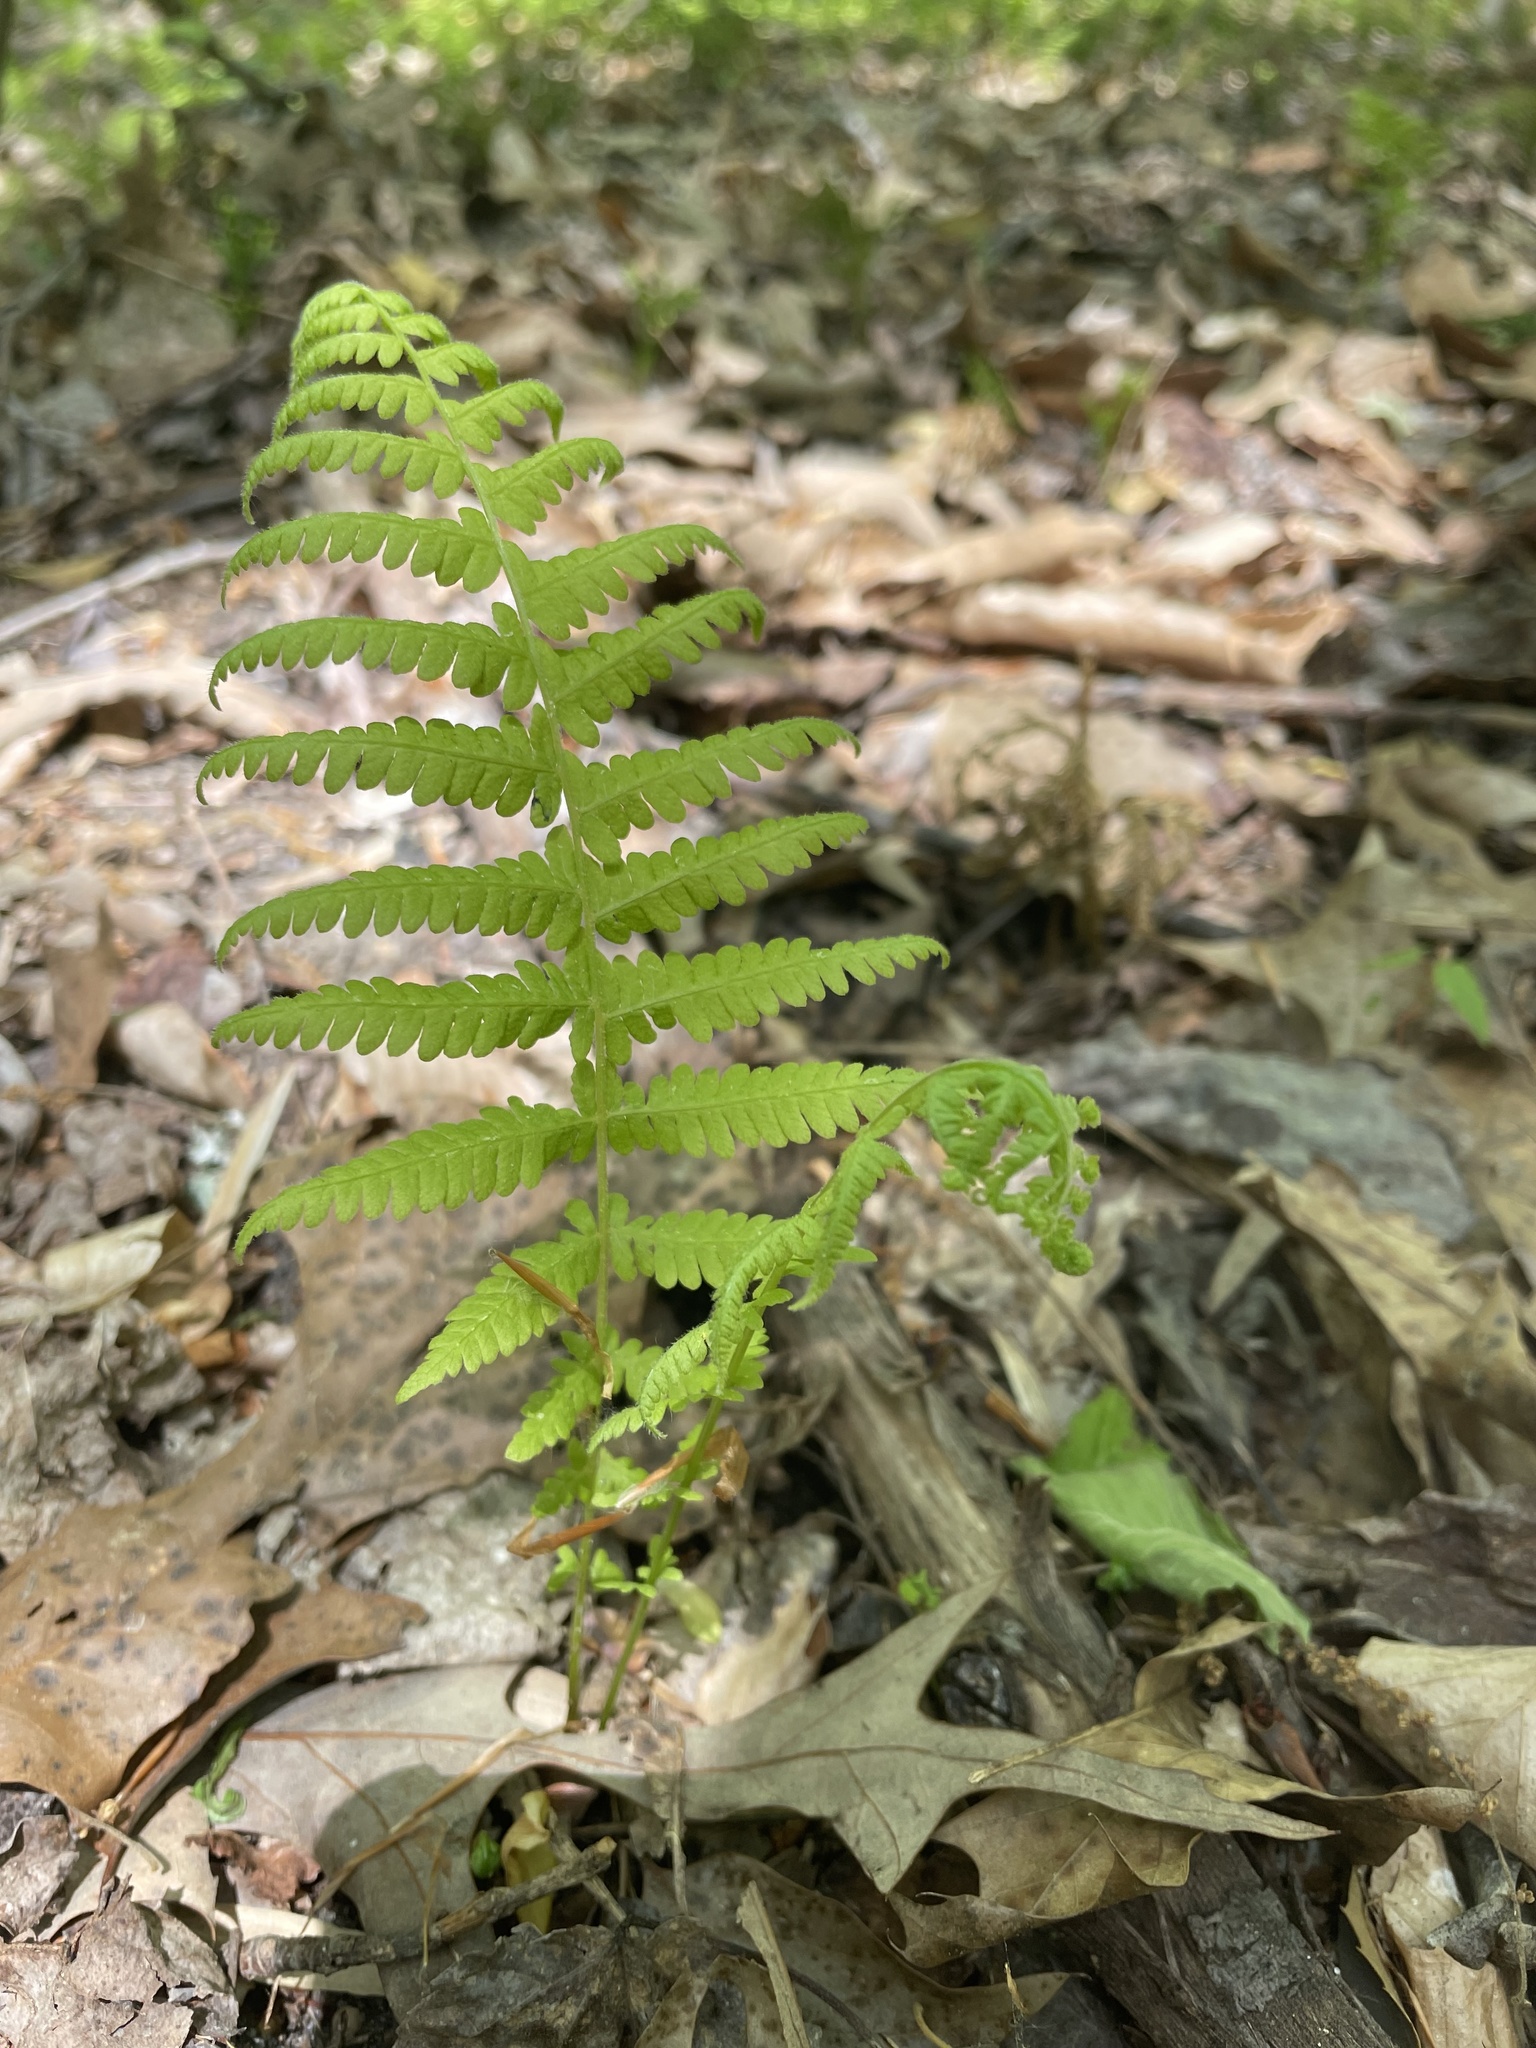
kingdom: Plantae
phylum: Tracheophyta
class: Polypodiopsida
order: Polypodiales
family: Thelypteridaceae
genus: Amauropelta
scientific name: Amauropelta noveboracensis
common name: New york fern
